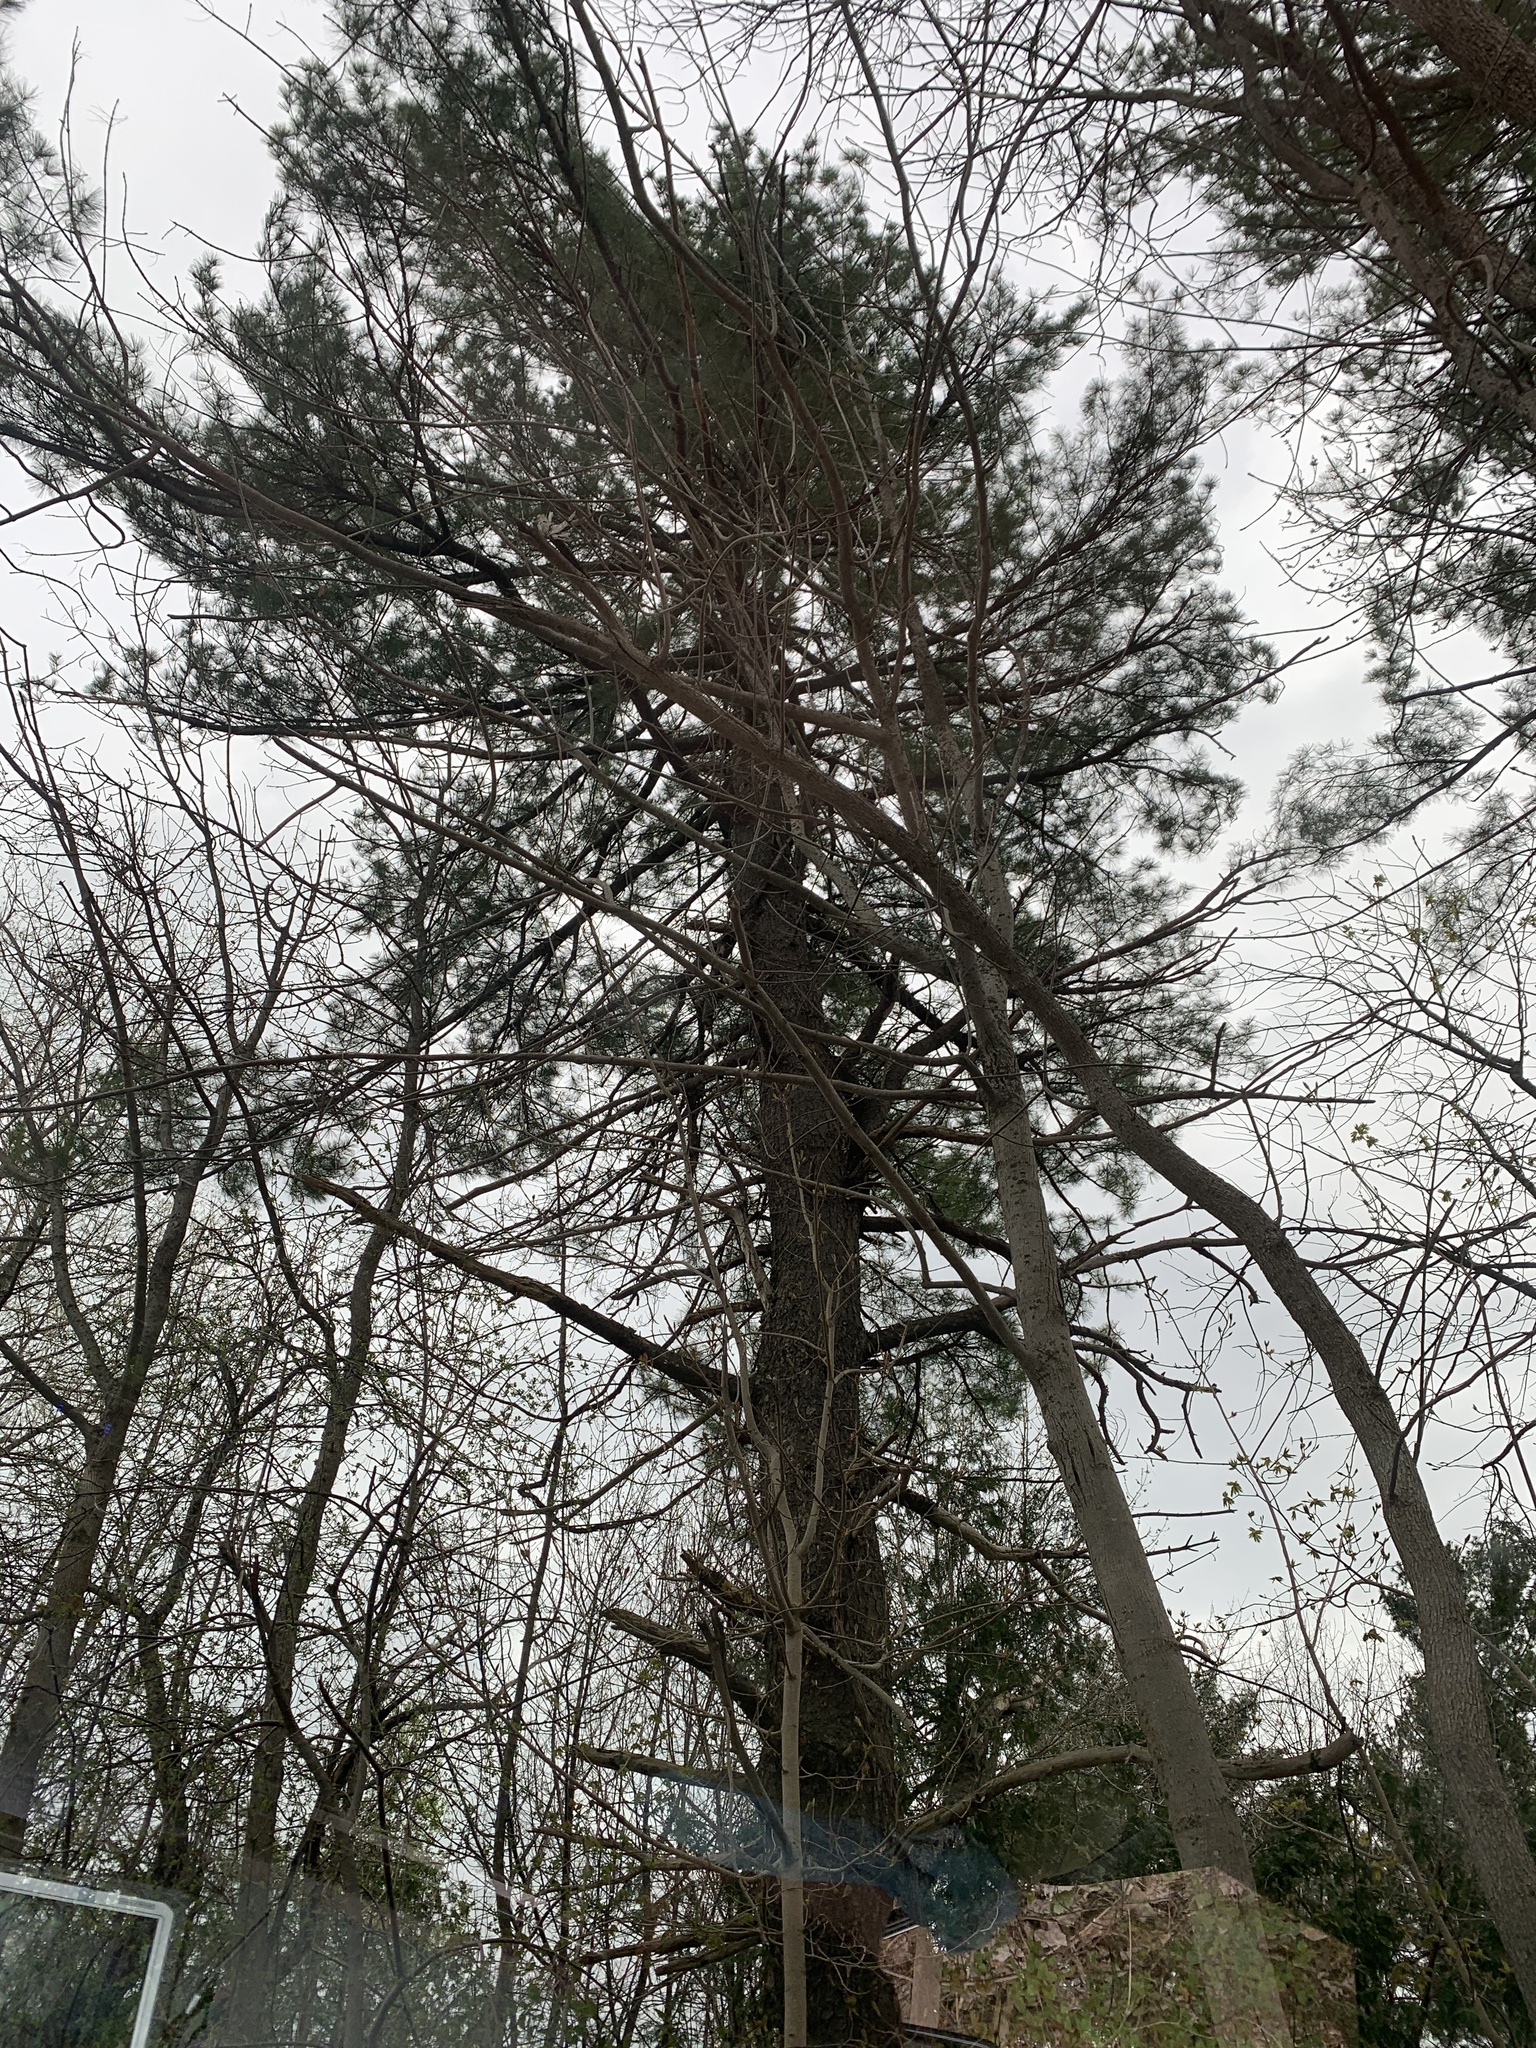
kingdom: Plantae
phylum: Tracheophyta
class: Pinopsida
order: Pinales
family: Pinaceae
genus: Pinus
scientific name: Pinus strobus
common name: Weymouth pine
